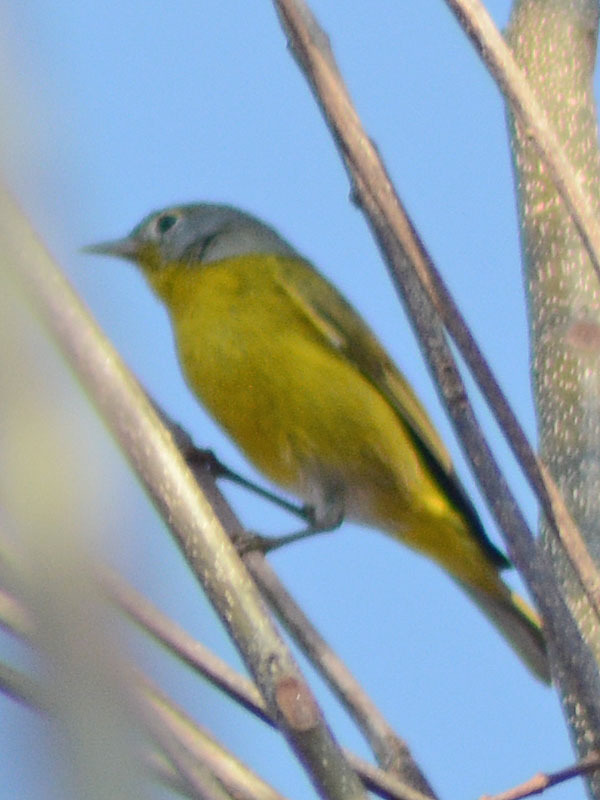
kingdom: Animalia
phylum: Chordata
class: Aves
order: Passeriformes
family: Parulidae
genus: Leiothlypis
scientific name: Leiothlypis ruficapilla
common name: Nashville warbler
